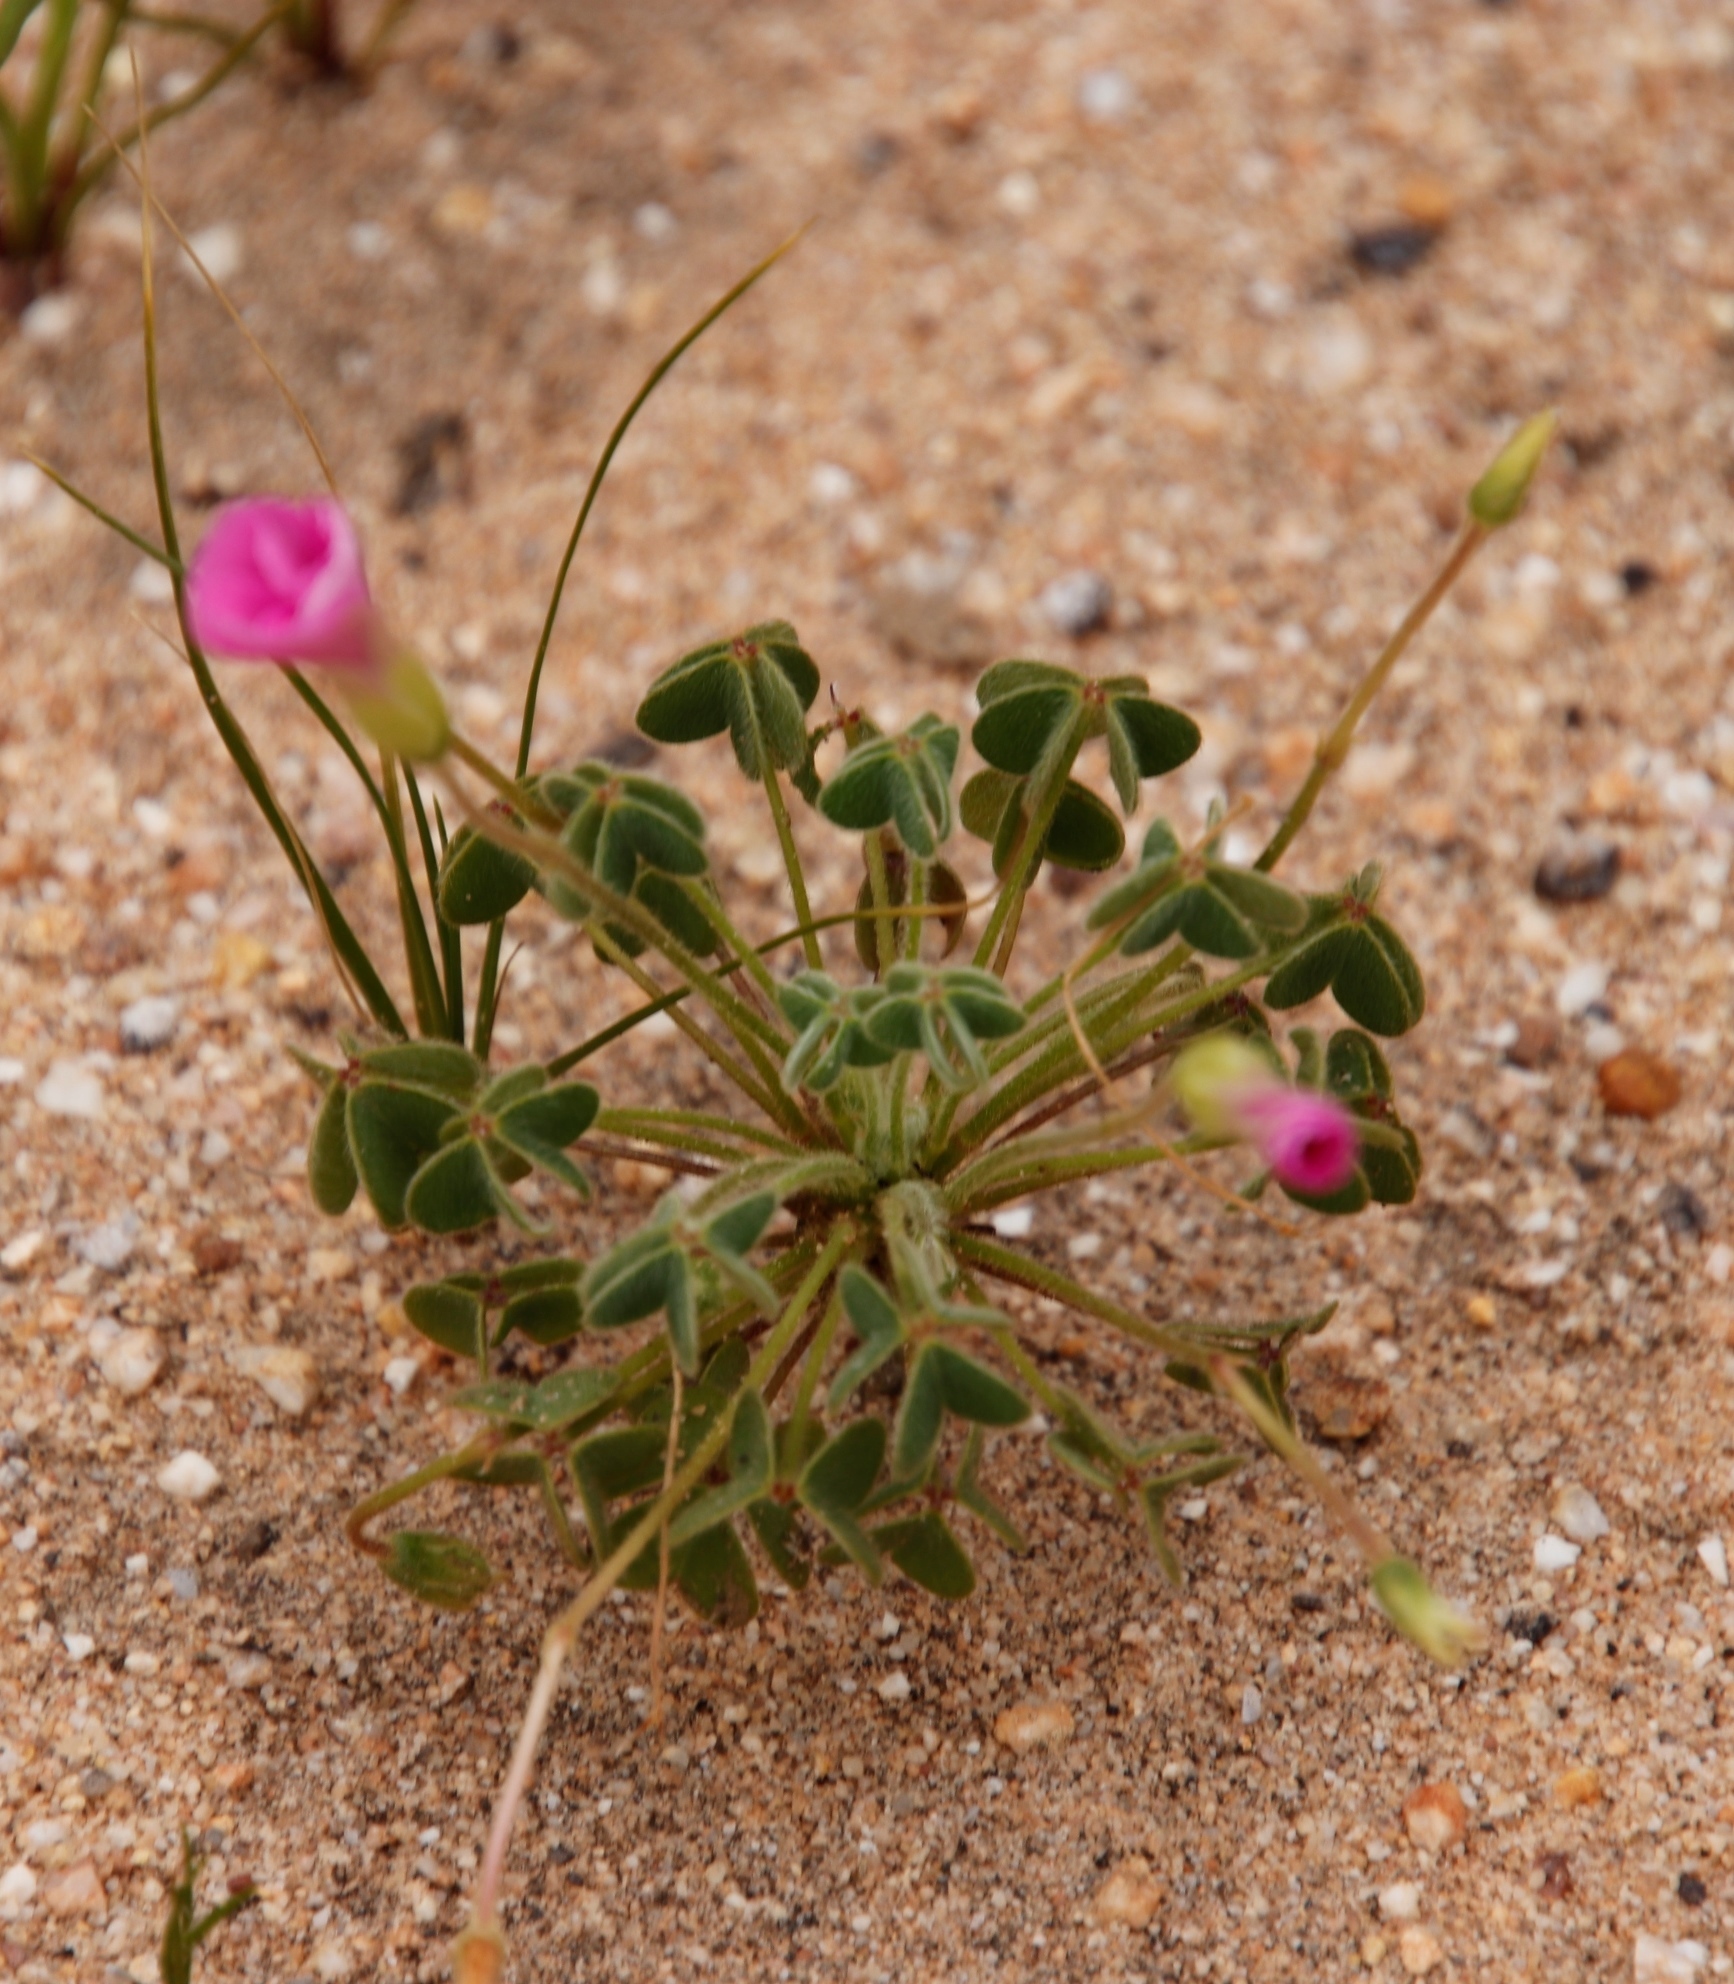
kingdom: Plantae
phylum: Tracheophyta
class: Magnoliopsida
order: Oxalidales
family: Oxalidaceae
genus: Oxalis
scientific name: Oxalis lanata
